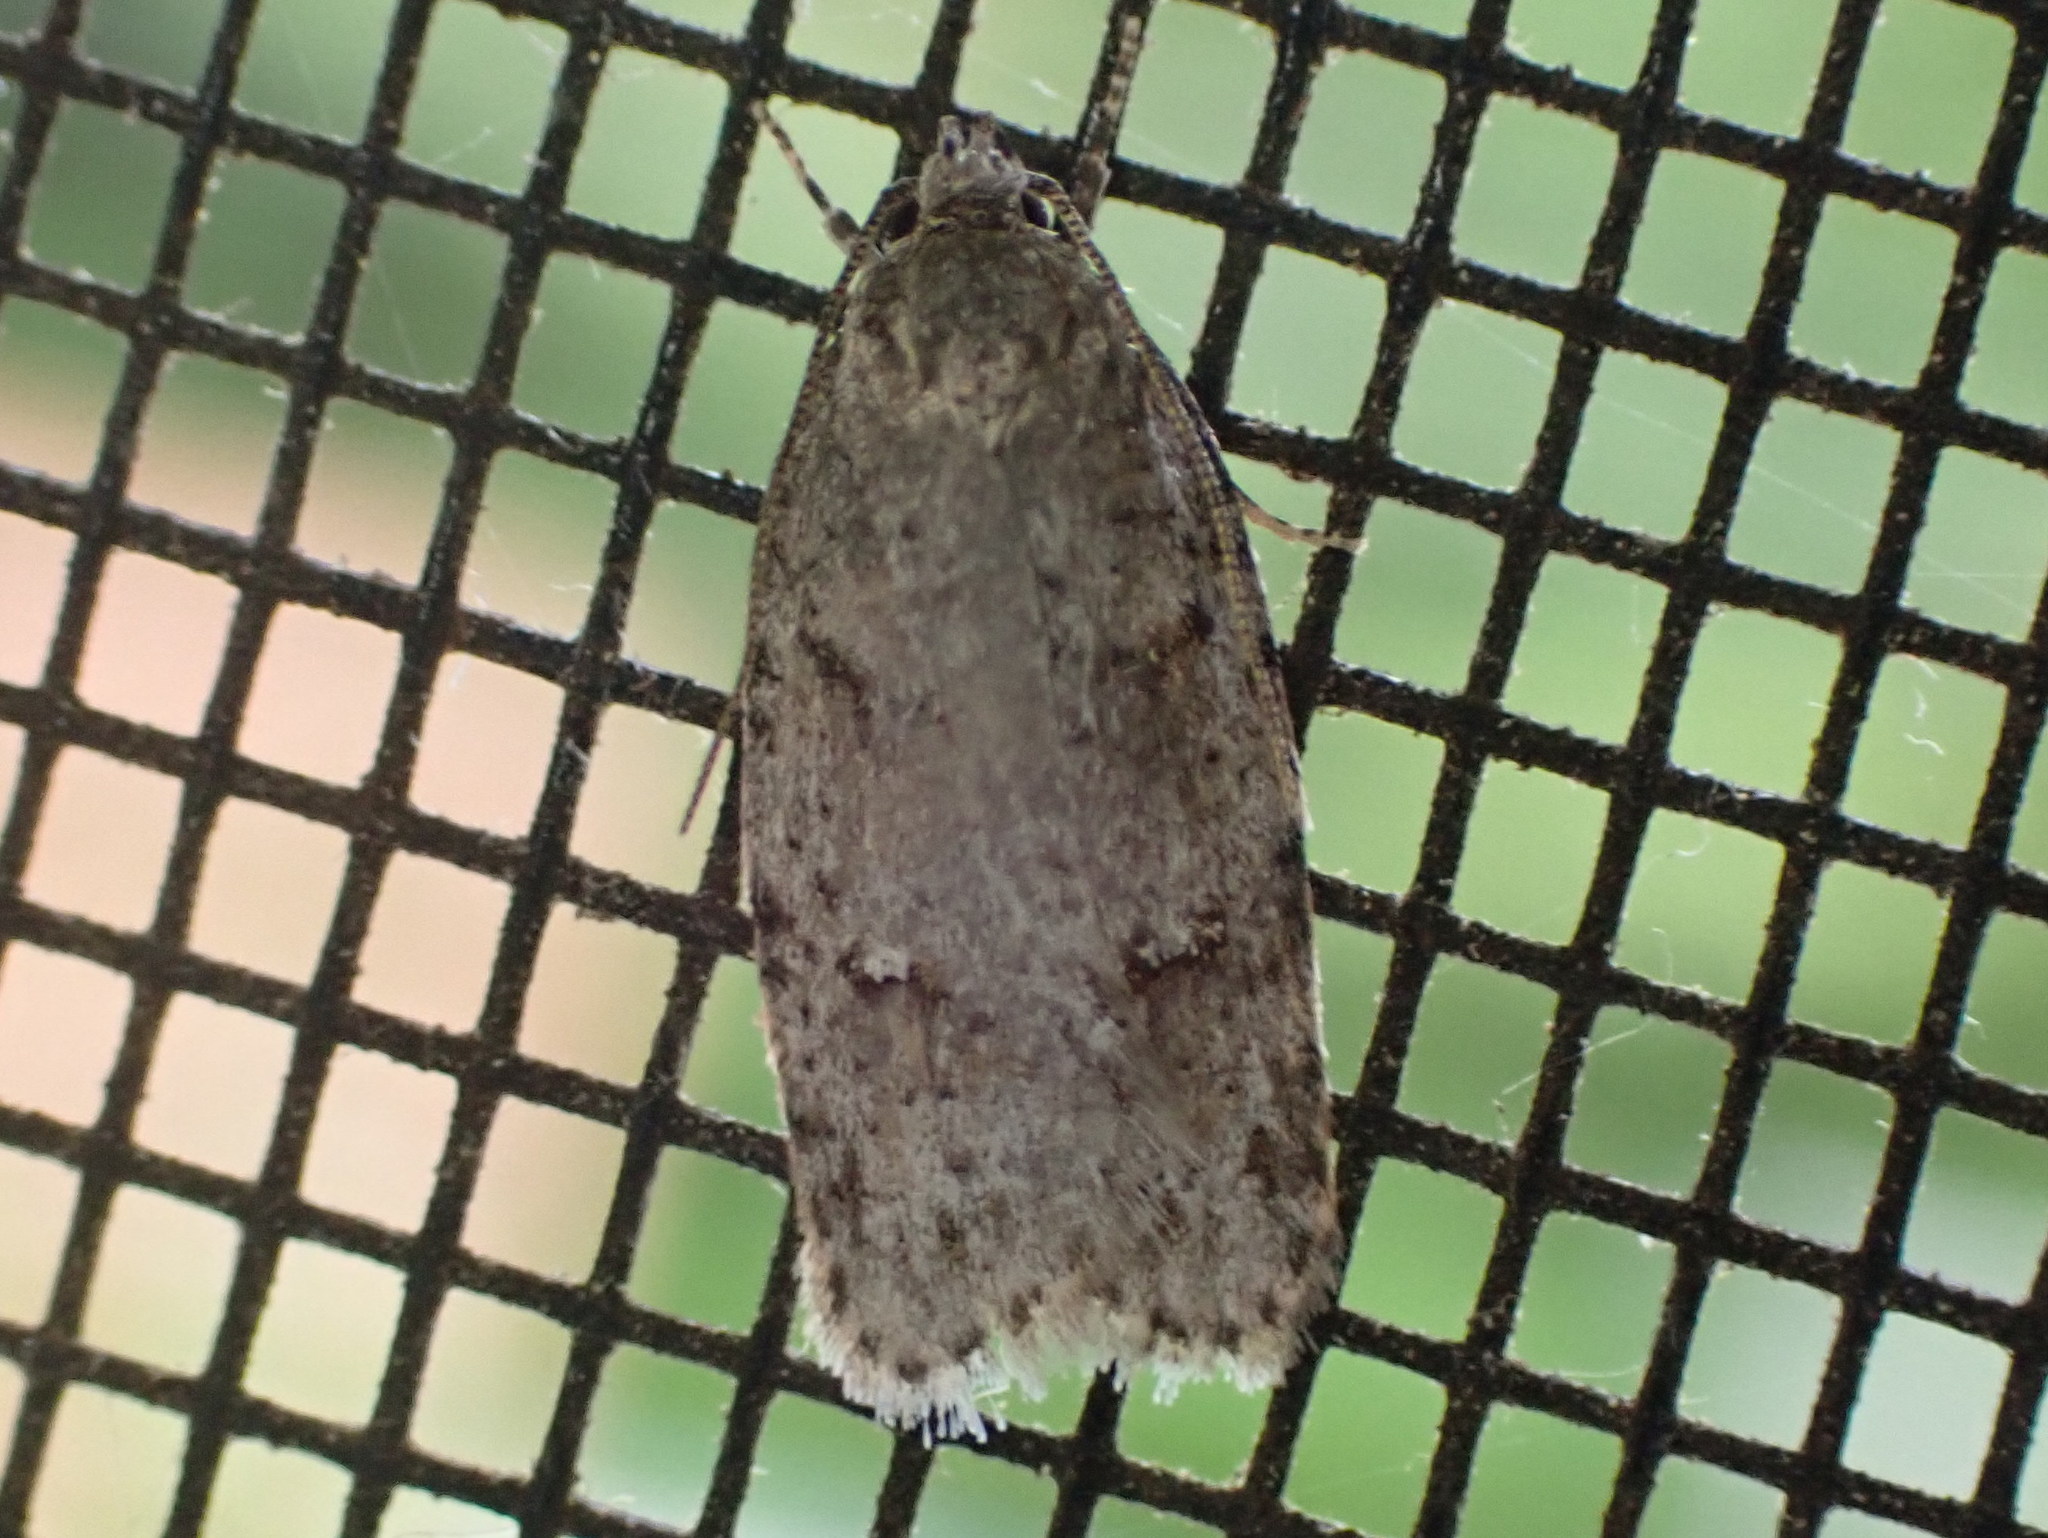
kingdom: Animalia
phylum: Arthropoda
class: Insecta
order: Lepidoptera
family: Depressariidae
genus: Bibarrambla
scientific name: Bibarrambla allenella
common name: Bog bibarrambla moth
